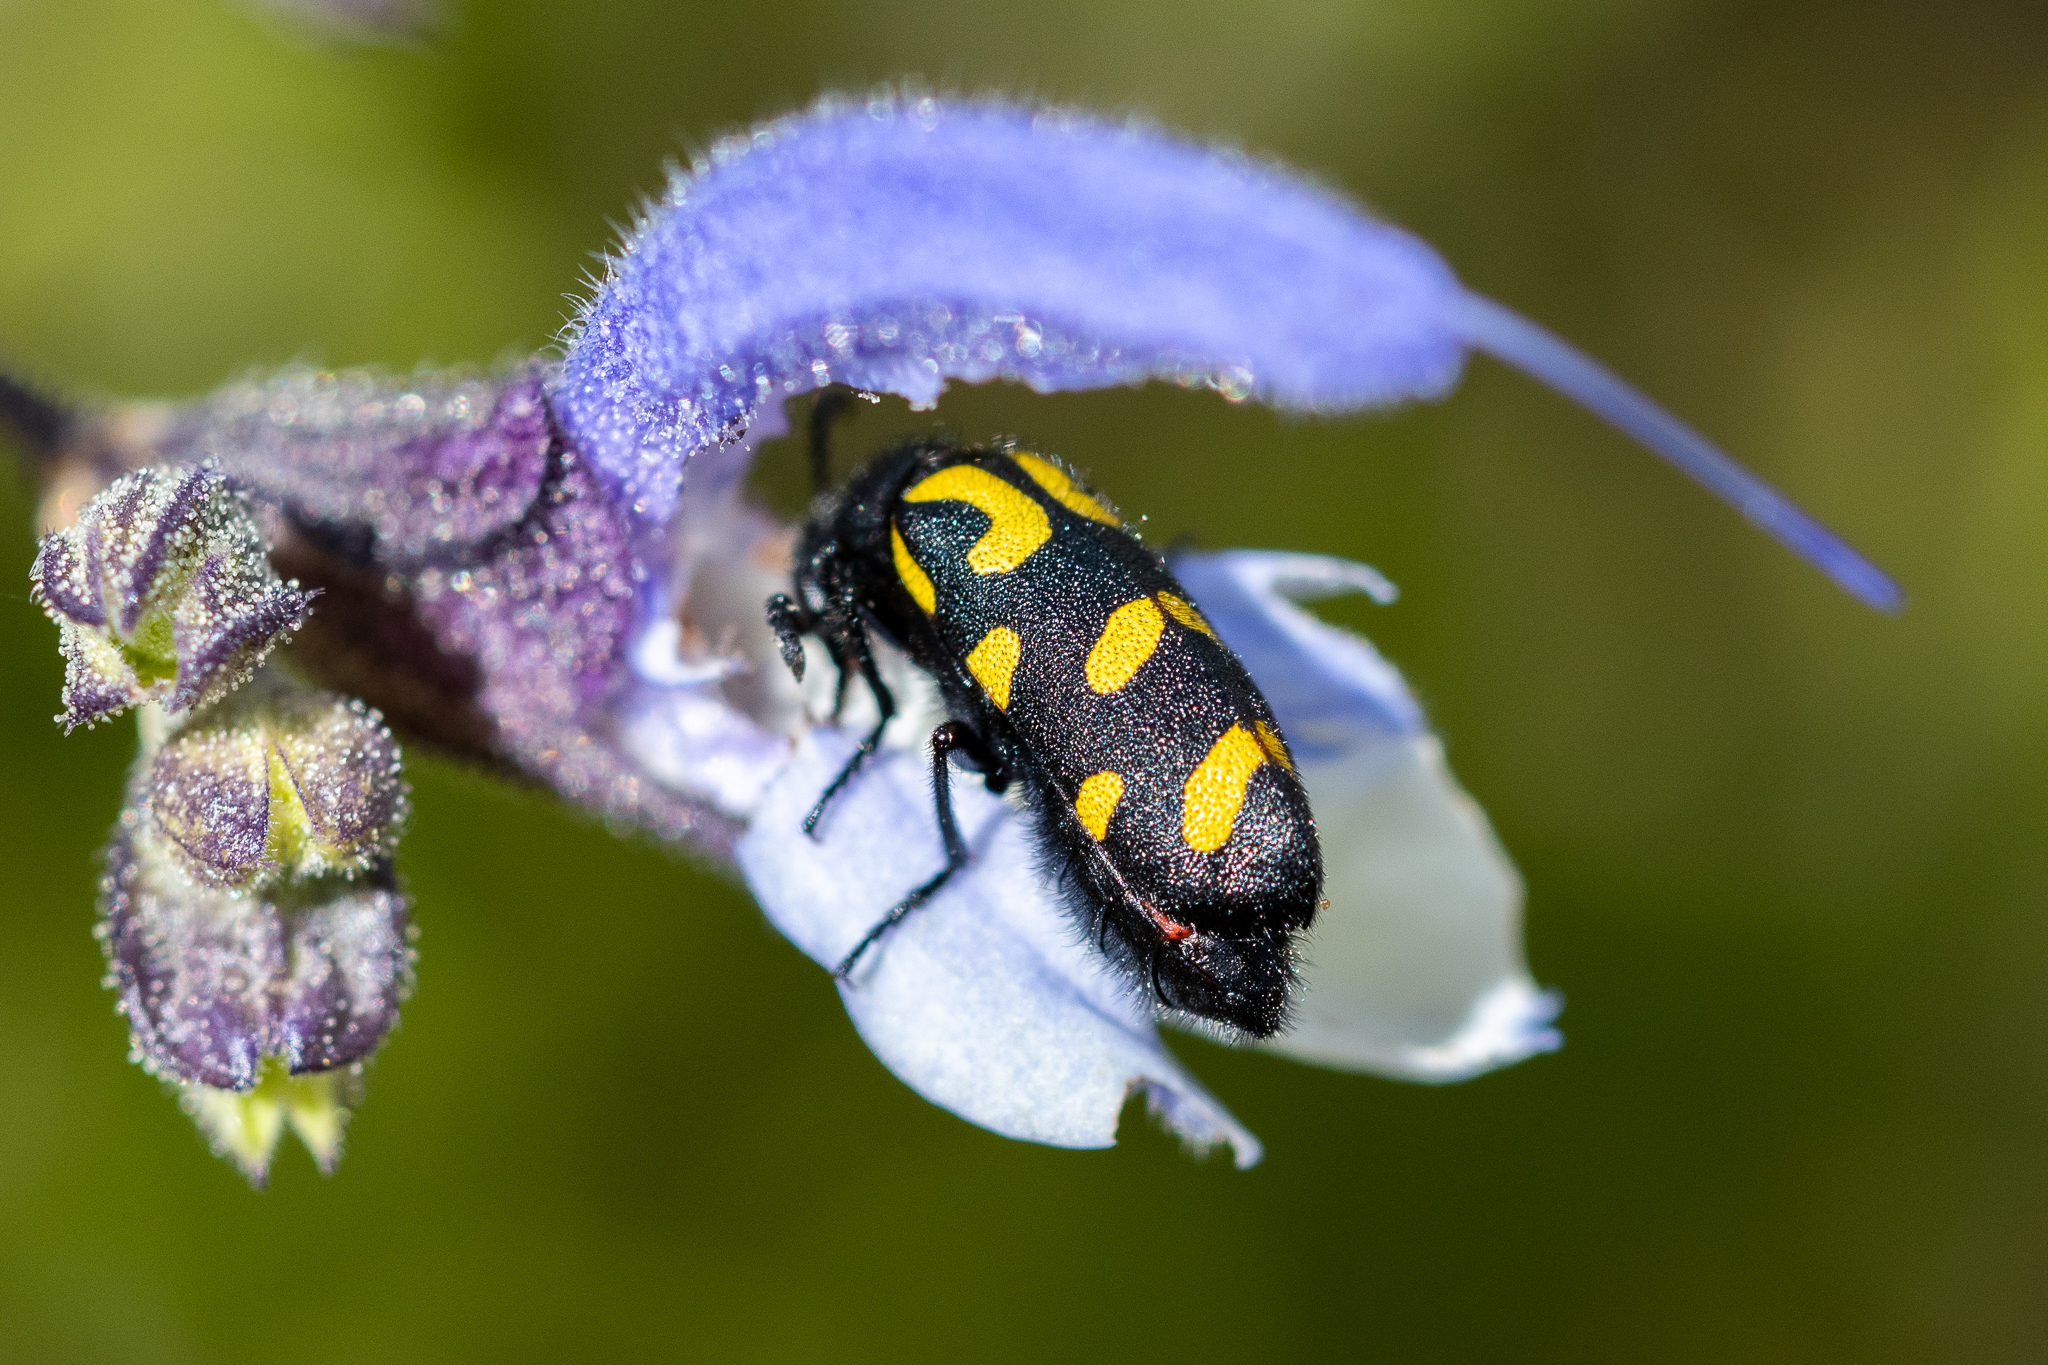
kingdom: Plantae
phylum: Tracheophyta
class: Magnoliopsida
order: Lamiales
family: Lamiaceae
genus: Salvia
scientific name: Salvia africana
